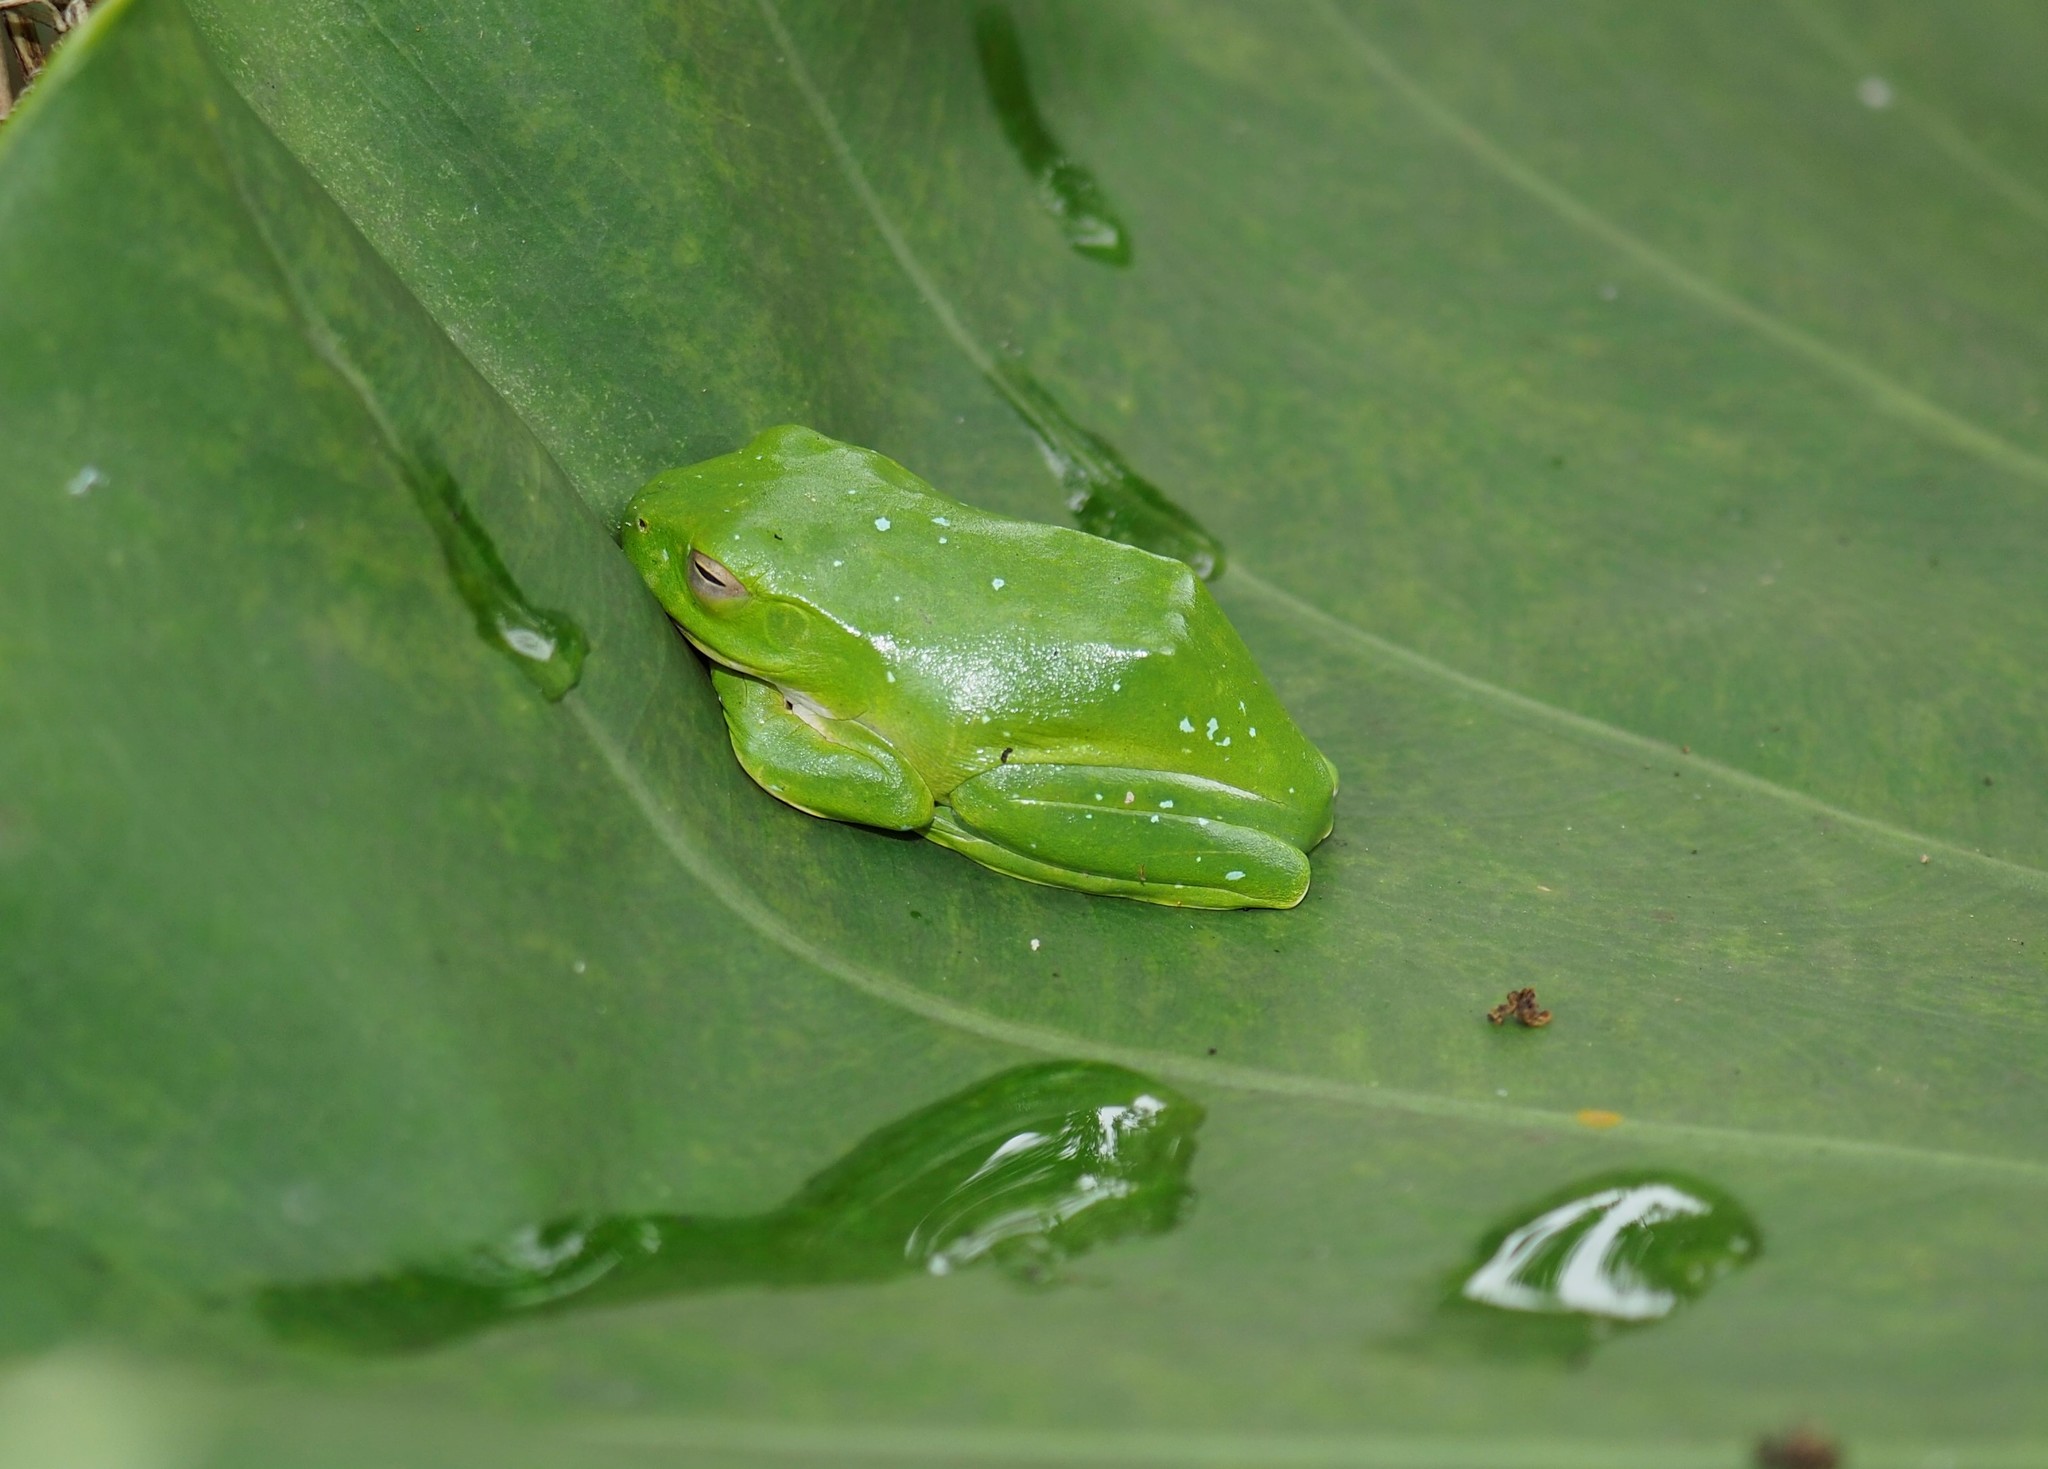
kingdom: Animalia
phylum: Chordata
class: Amphibia
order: Anura
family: Rhacophoridae
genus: Zhangixalus
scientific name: Zhangixalus moltrechti
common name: Moltrecht's treefrog
